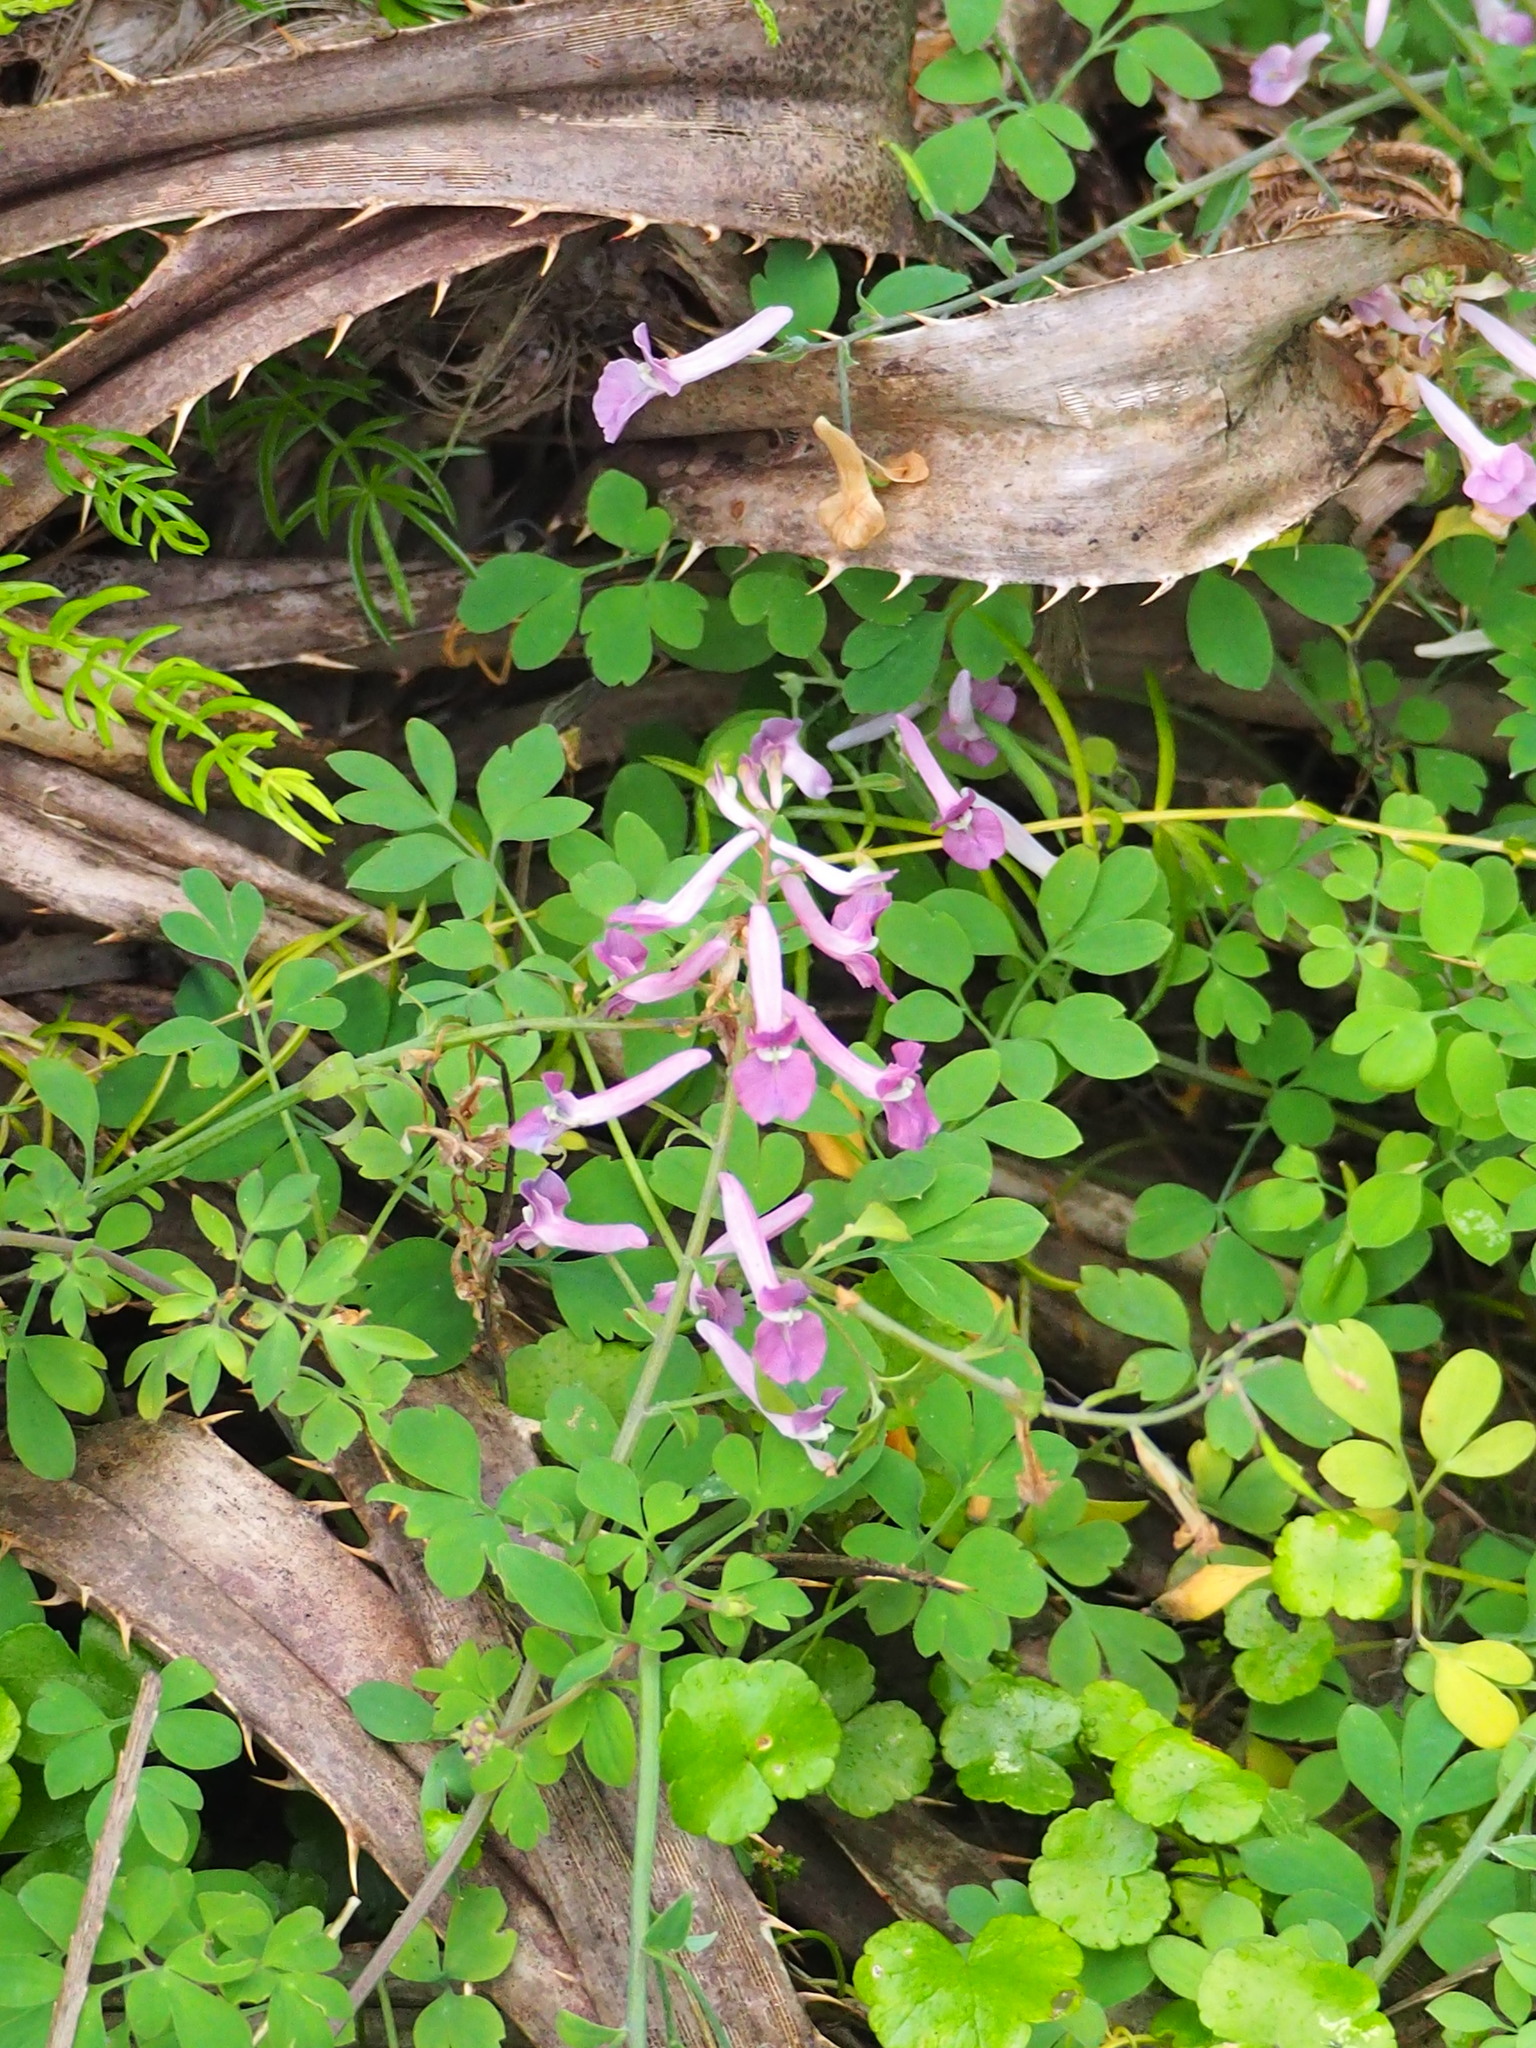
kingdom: Plantae
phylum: Tracheophyta
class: Magnoliopsida
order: Ranunculales
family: Papaveraceae
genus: Corydalis
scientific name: Corydalis decumbens
